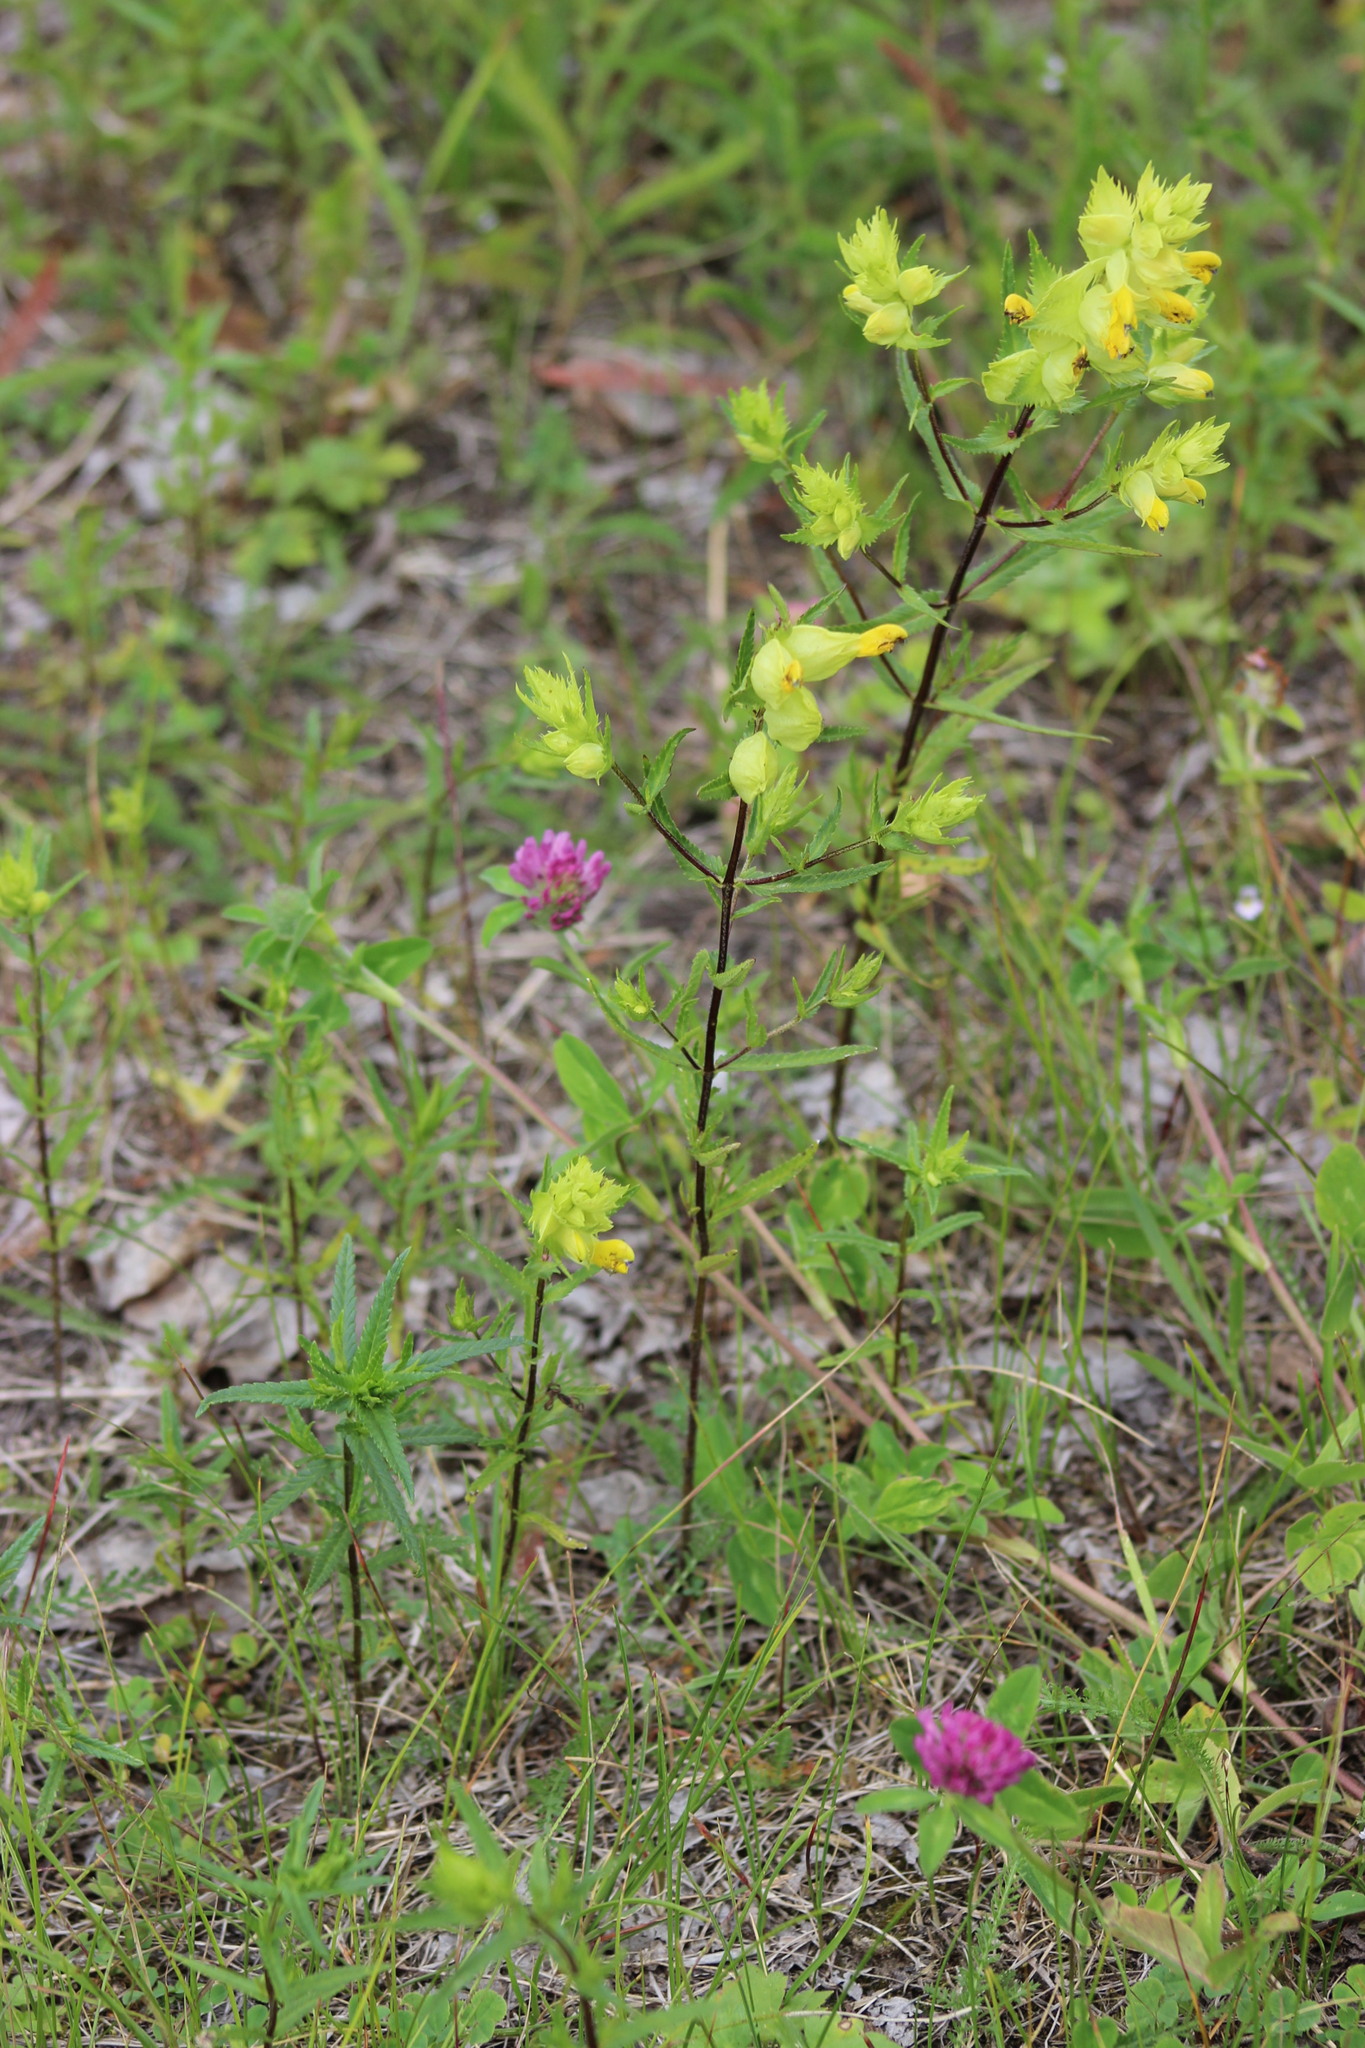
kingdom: Plantae
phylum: Tracheophyta
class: Magnoliopsida
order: Lamiales
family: Orobanchaceae
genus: Rhinanthus
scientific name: Rhinanthus serotinus
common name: Late-flowering yellow rattle
